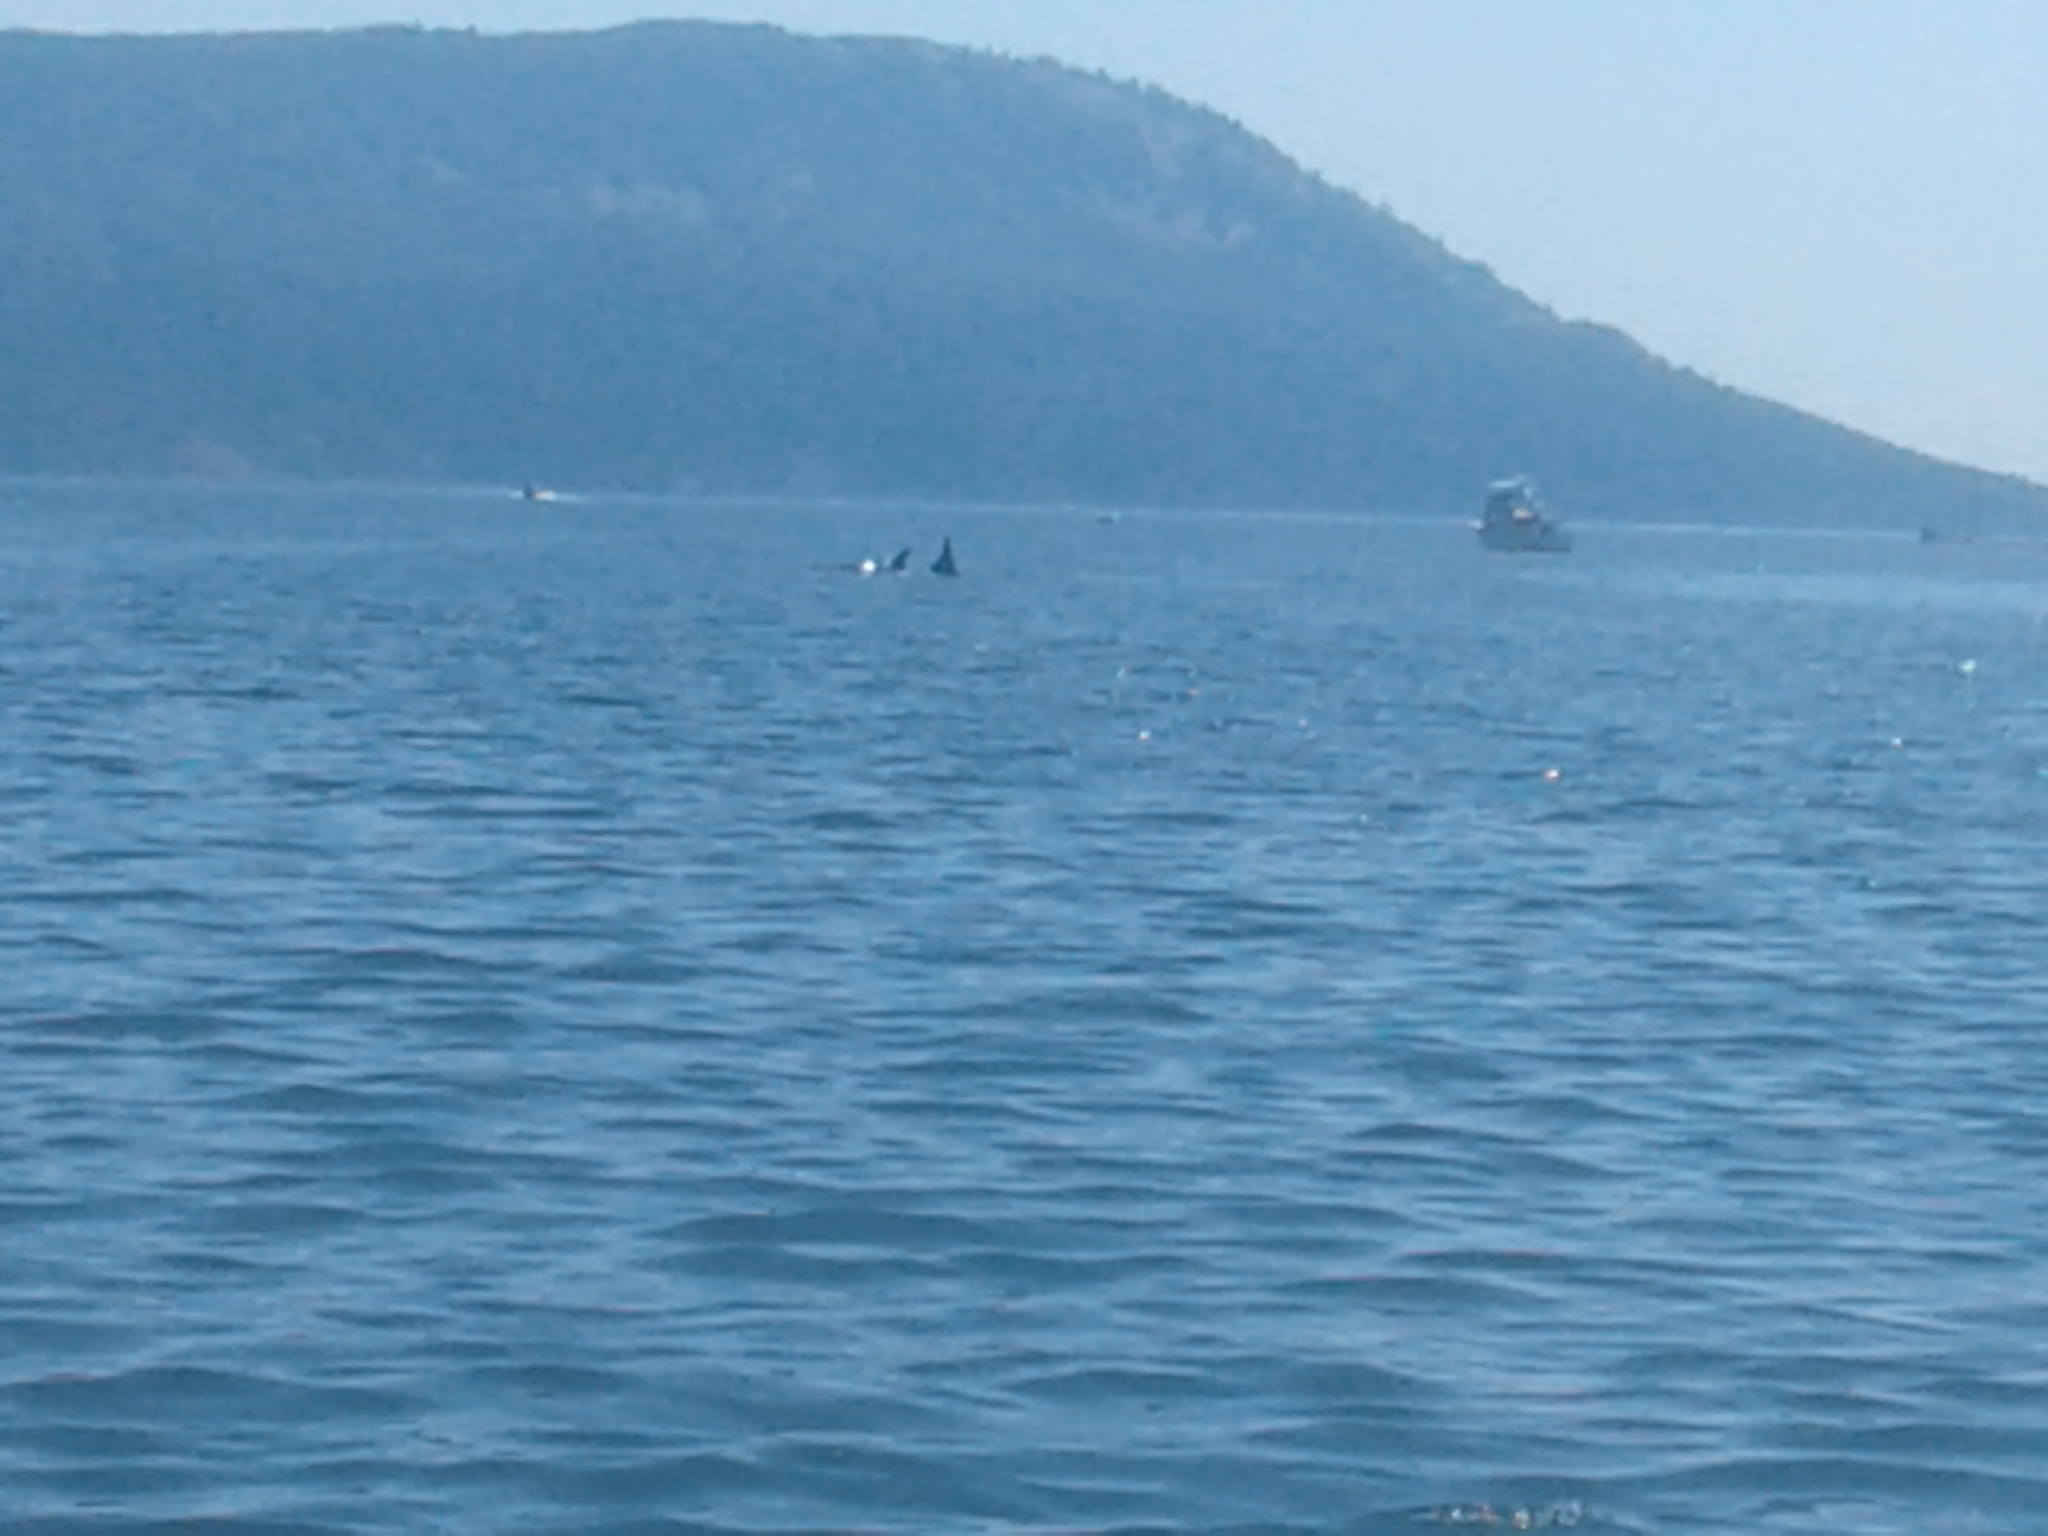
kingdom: Animalia
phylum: Chordata
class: Mammalia
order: Cetacea
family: Delphinidae
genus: Orcinus
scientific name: Orcinus orca
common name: Killer whale
